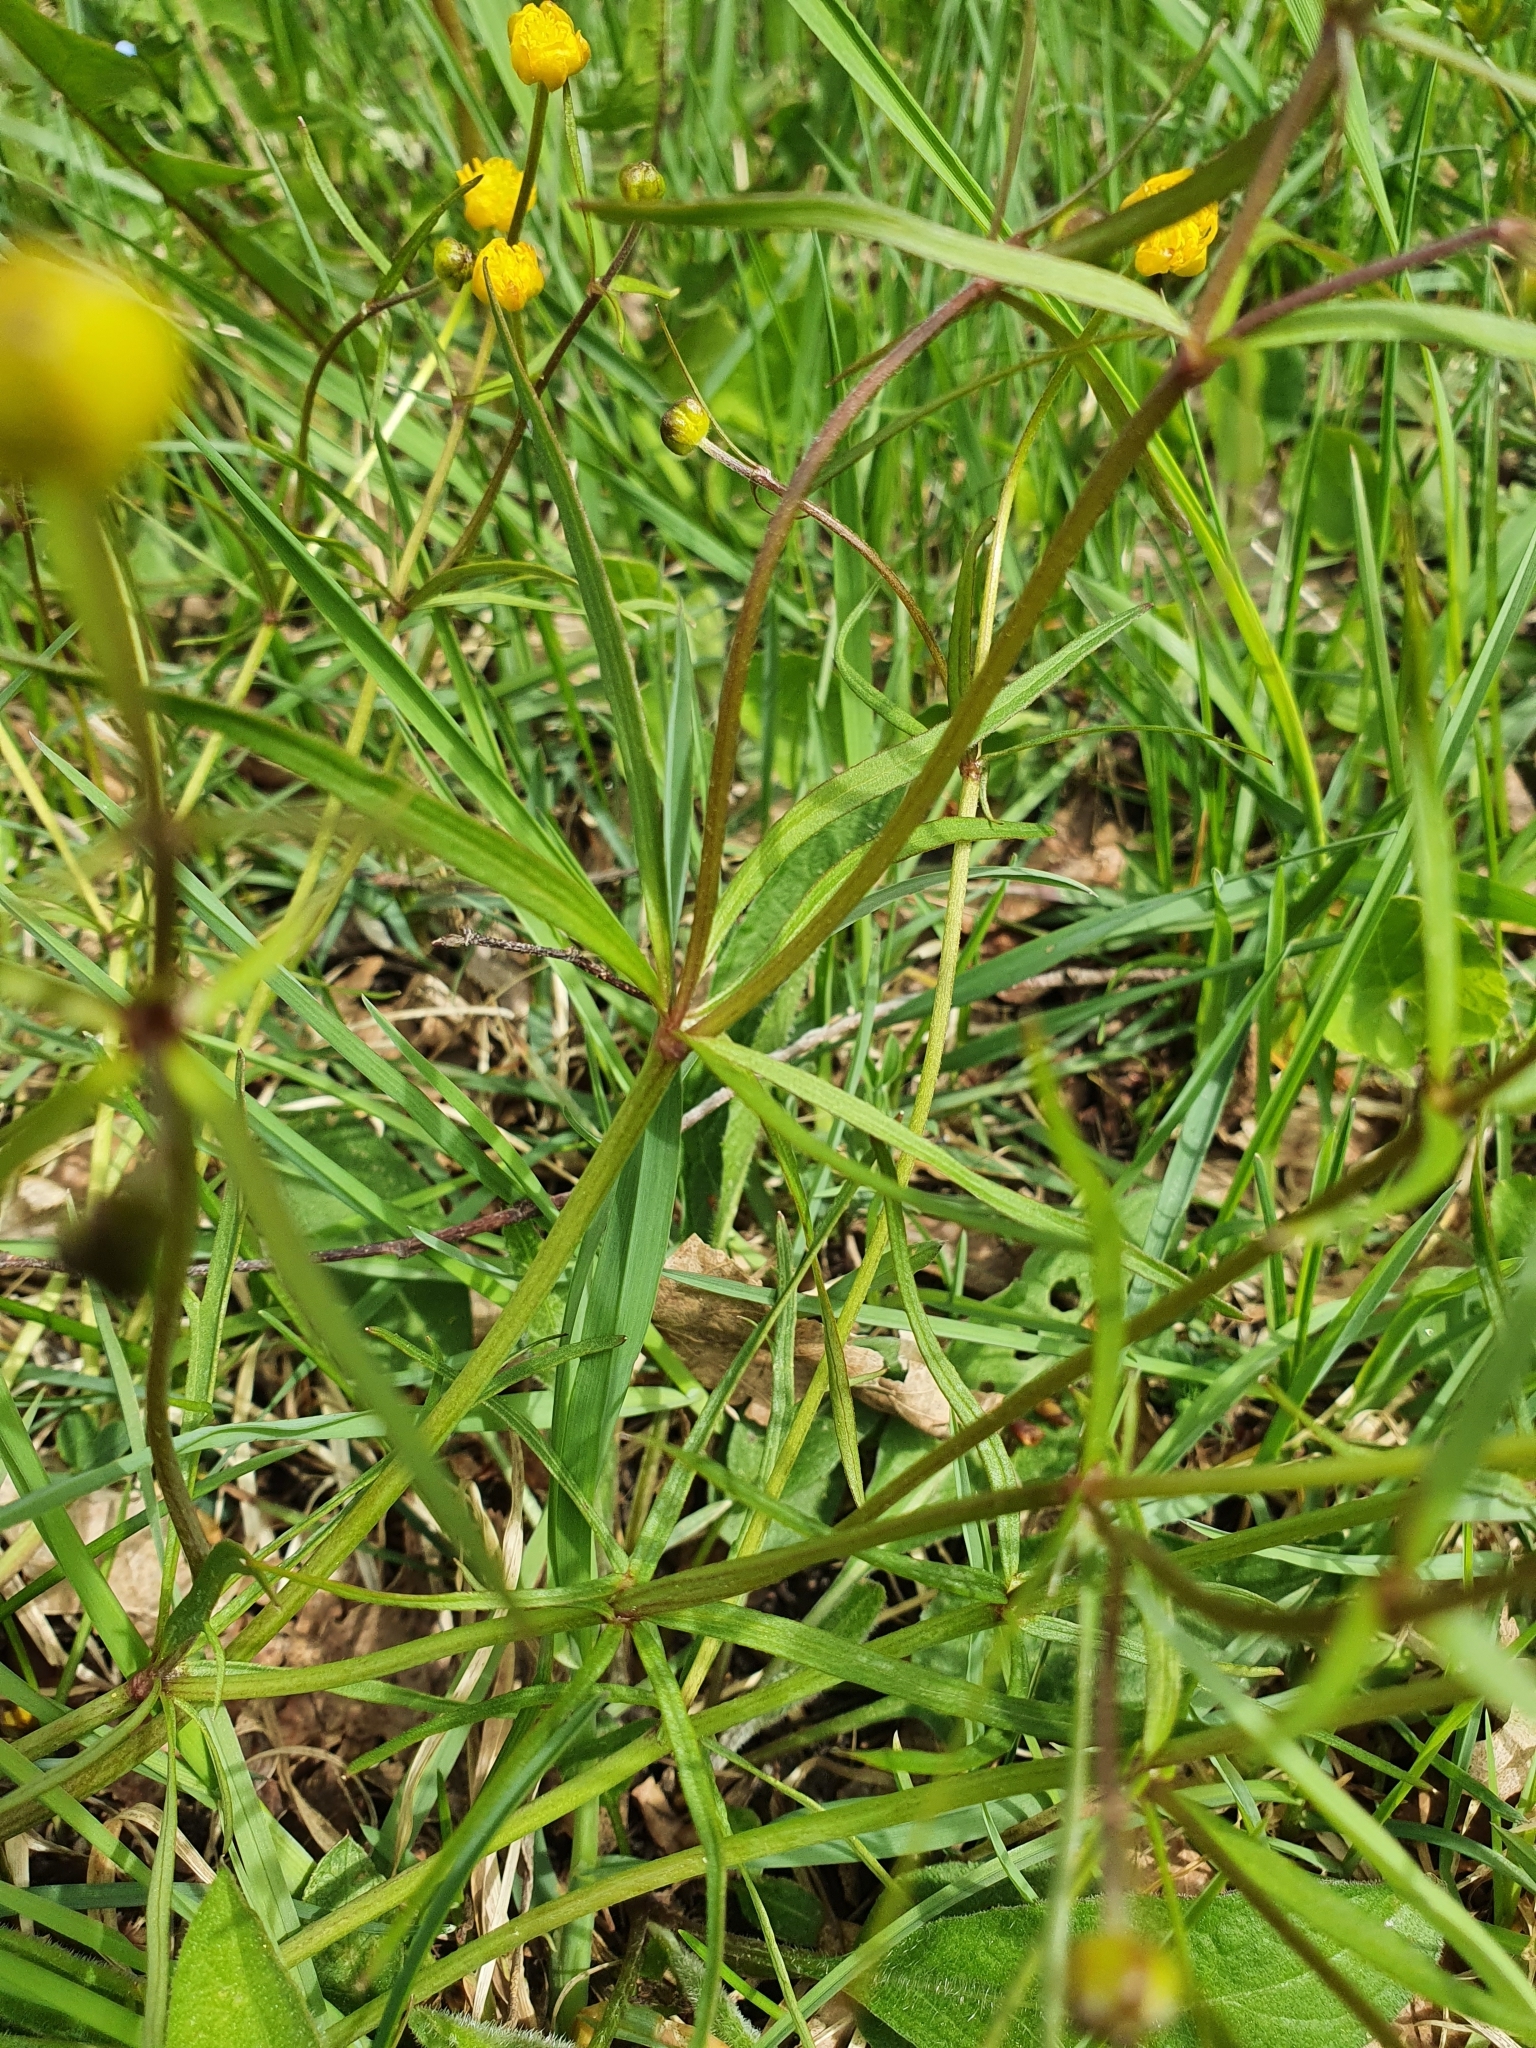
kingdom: Plantae
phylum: Tracheophyta
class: Magnoliopsida
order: Ranunculales
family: Ranunculaceae
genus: Ranunculus
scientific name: Ranunculus auricomus
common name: Goldilocks buttercup
